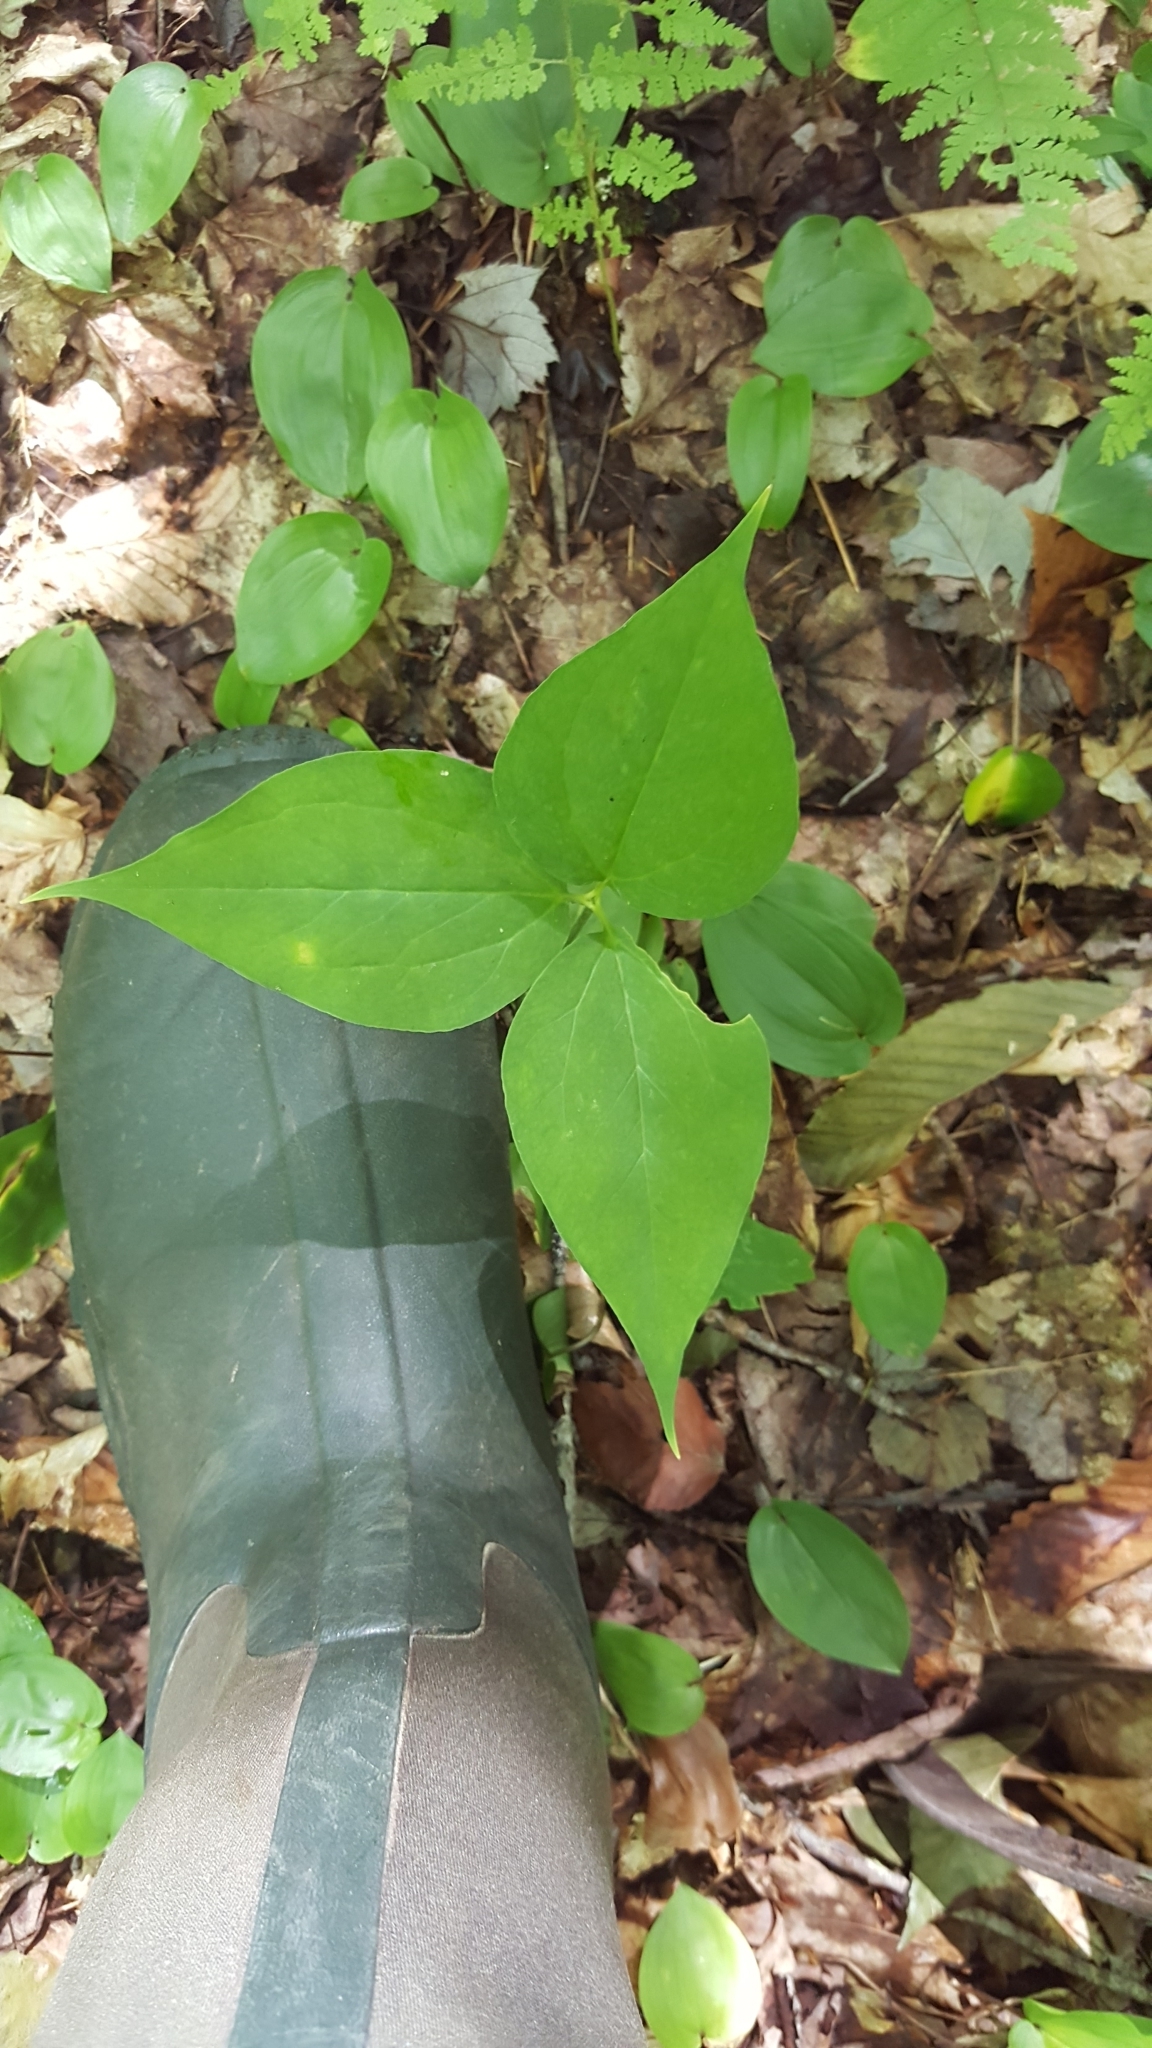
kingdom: Plantae
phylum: Tracheophyta
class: Liliopsida
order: Liliales
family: Melanthiaceae
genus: Trillium
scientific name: Trillium undulatum
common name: Paint trillium
